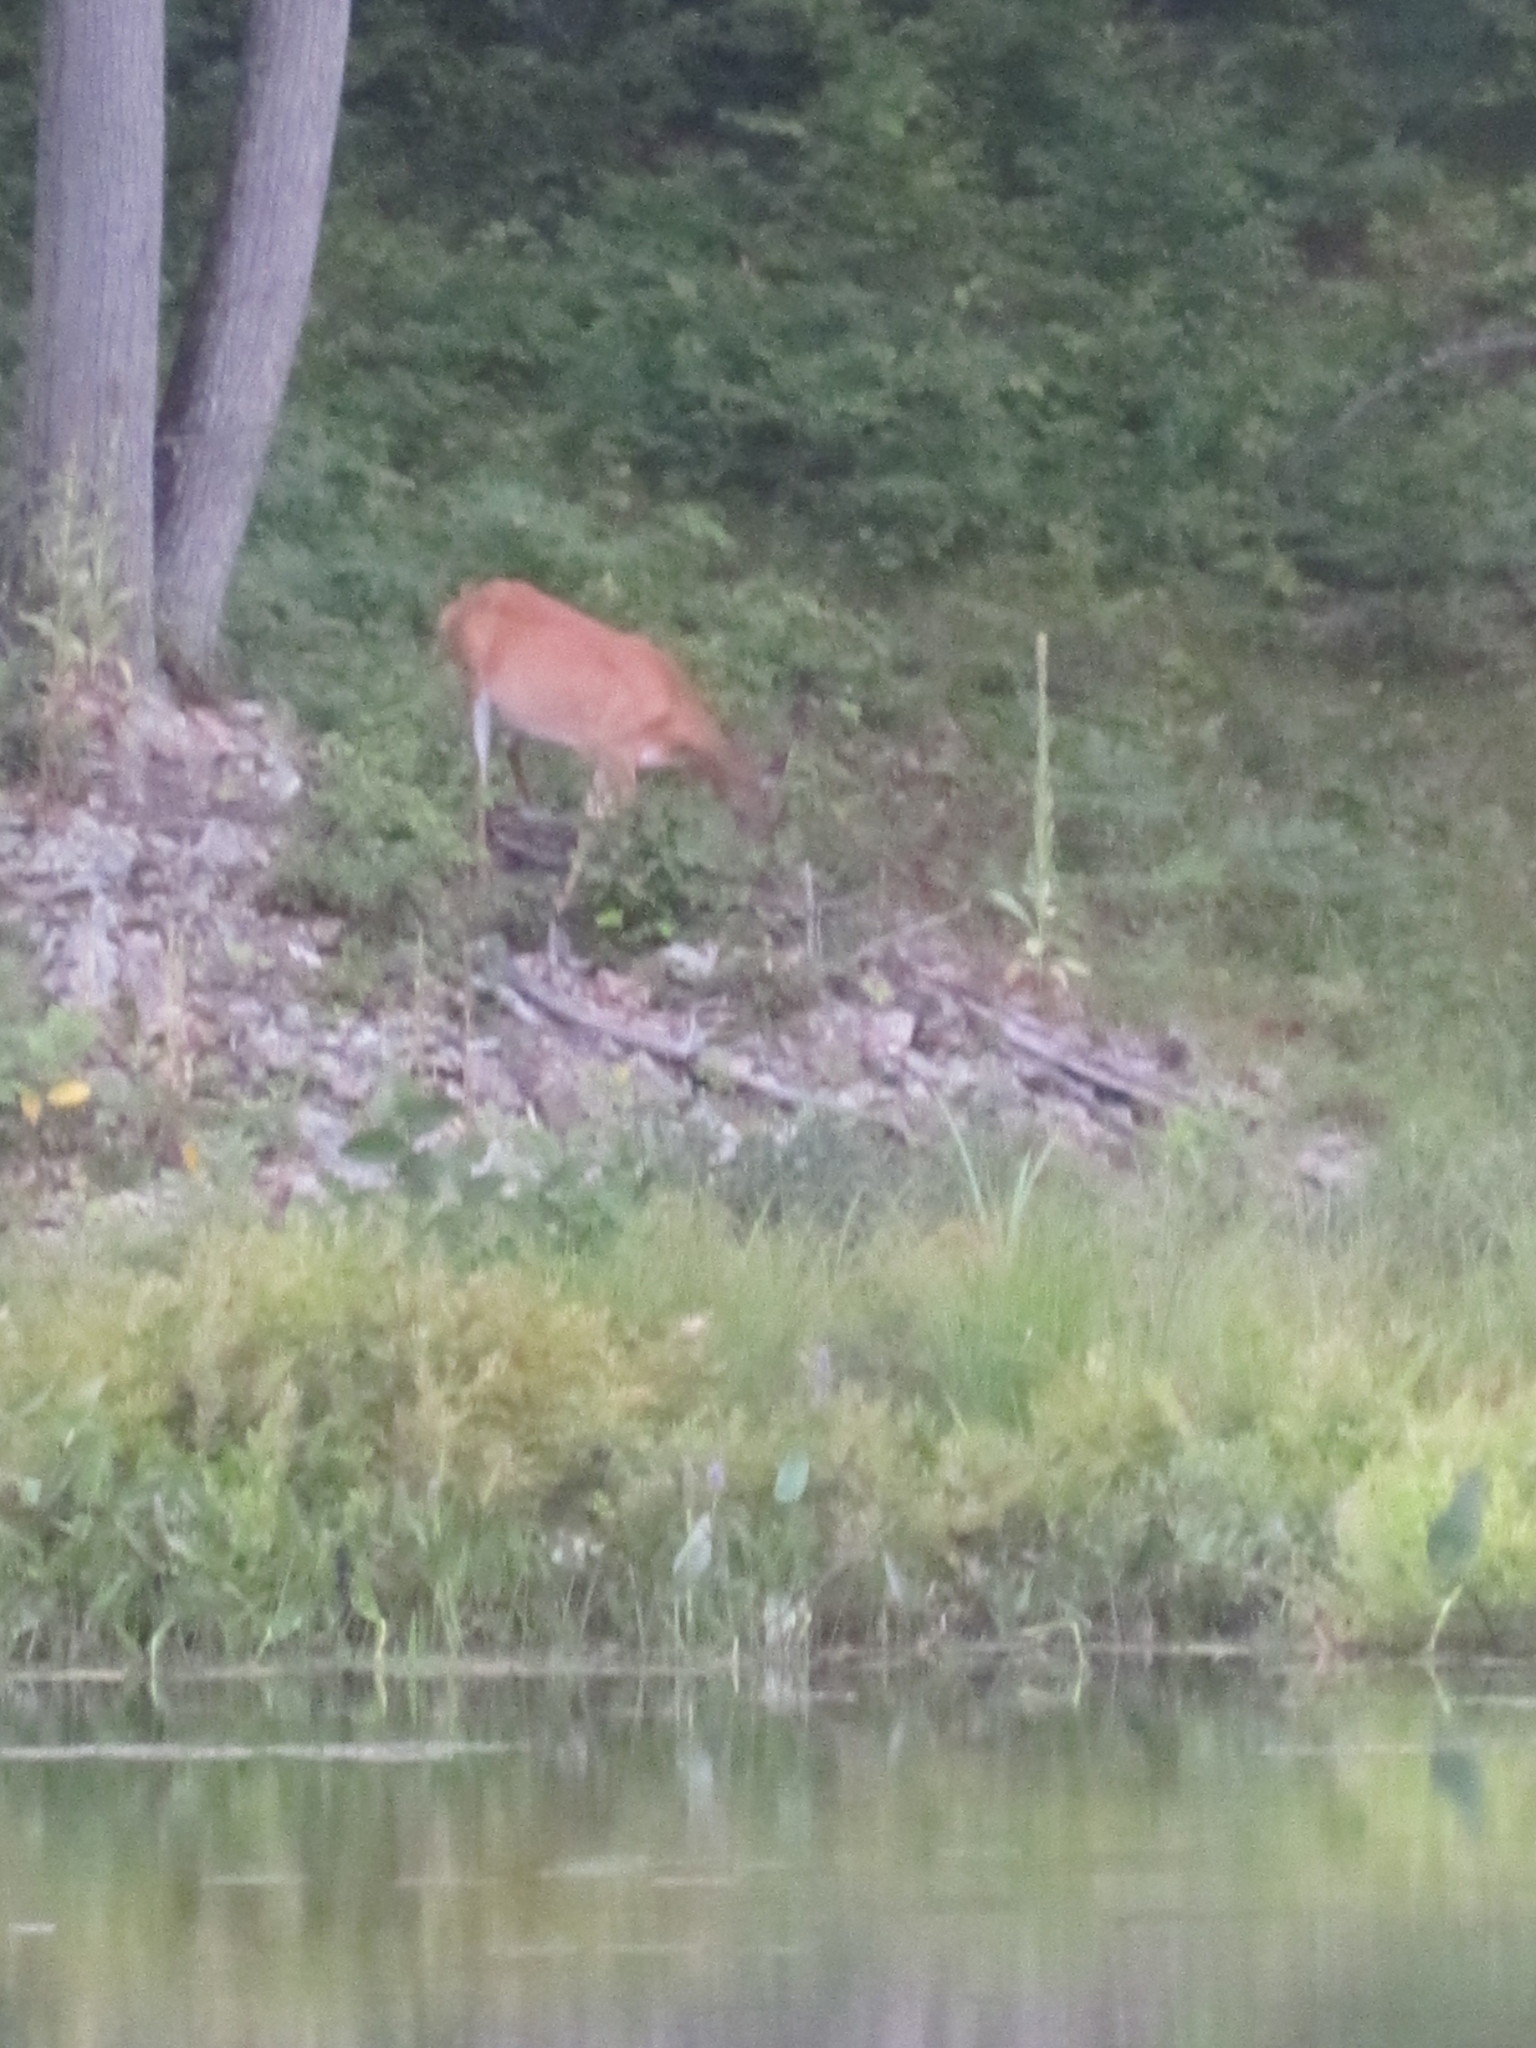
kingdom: Animalia
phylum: Chordata
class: Mammalia
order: Artiodactyla
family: Cervidae
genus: Odocoileus
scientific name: Odocoileus virginianus
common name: White-tailed deer
